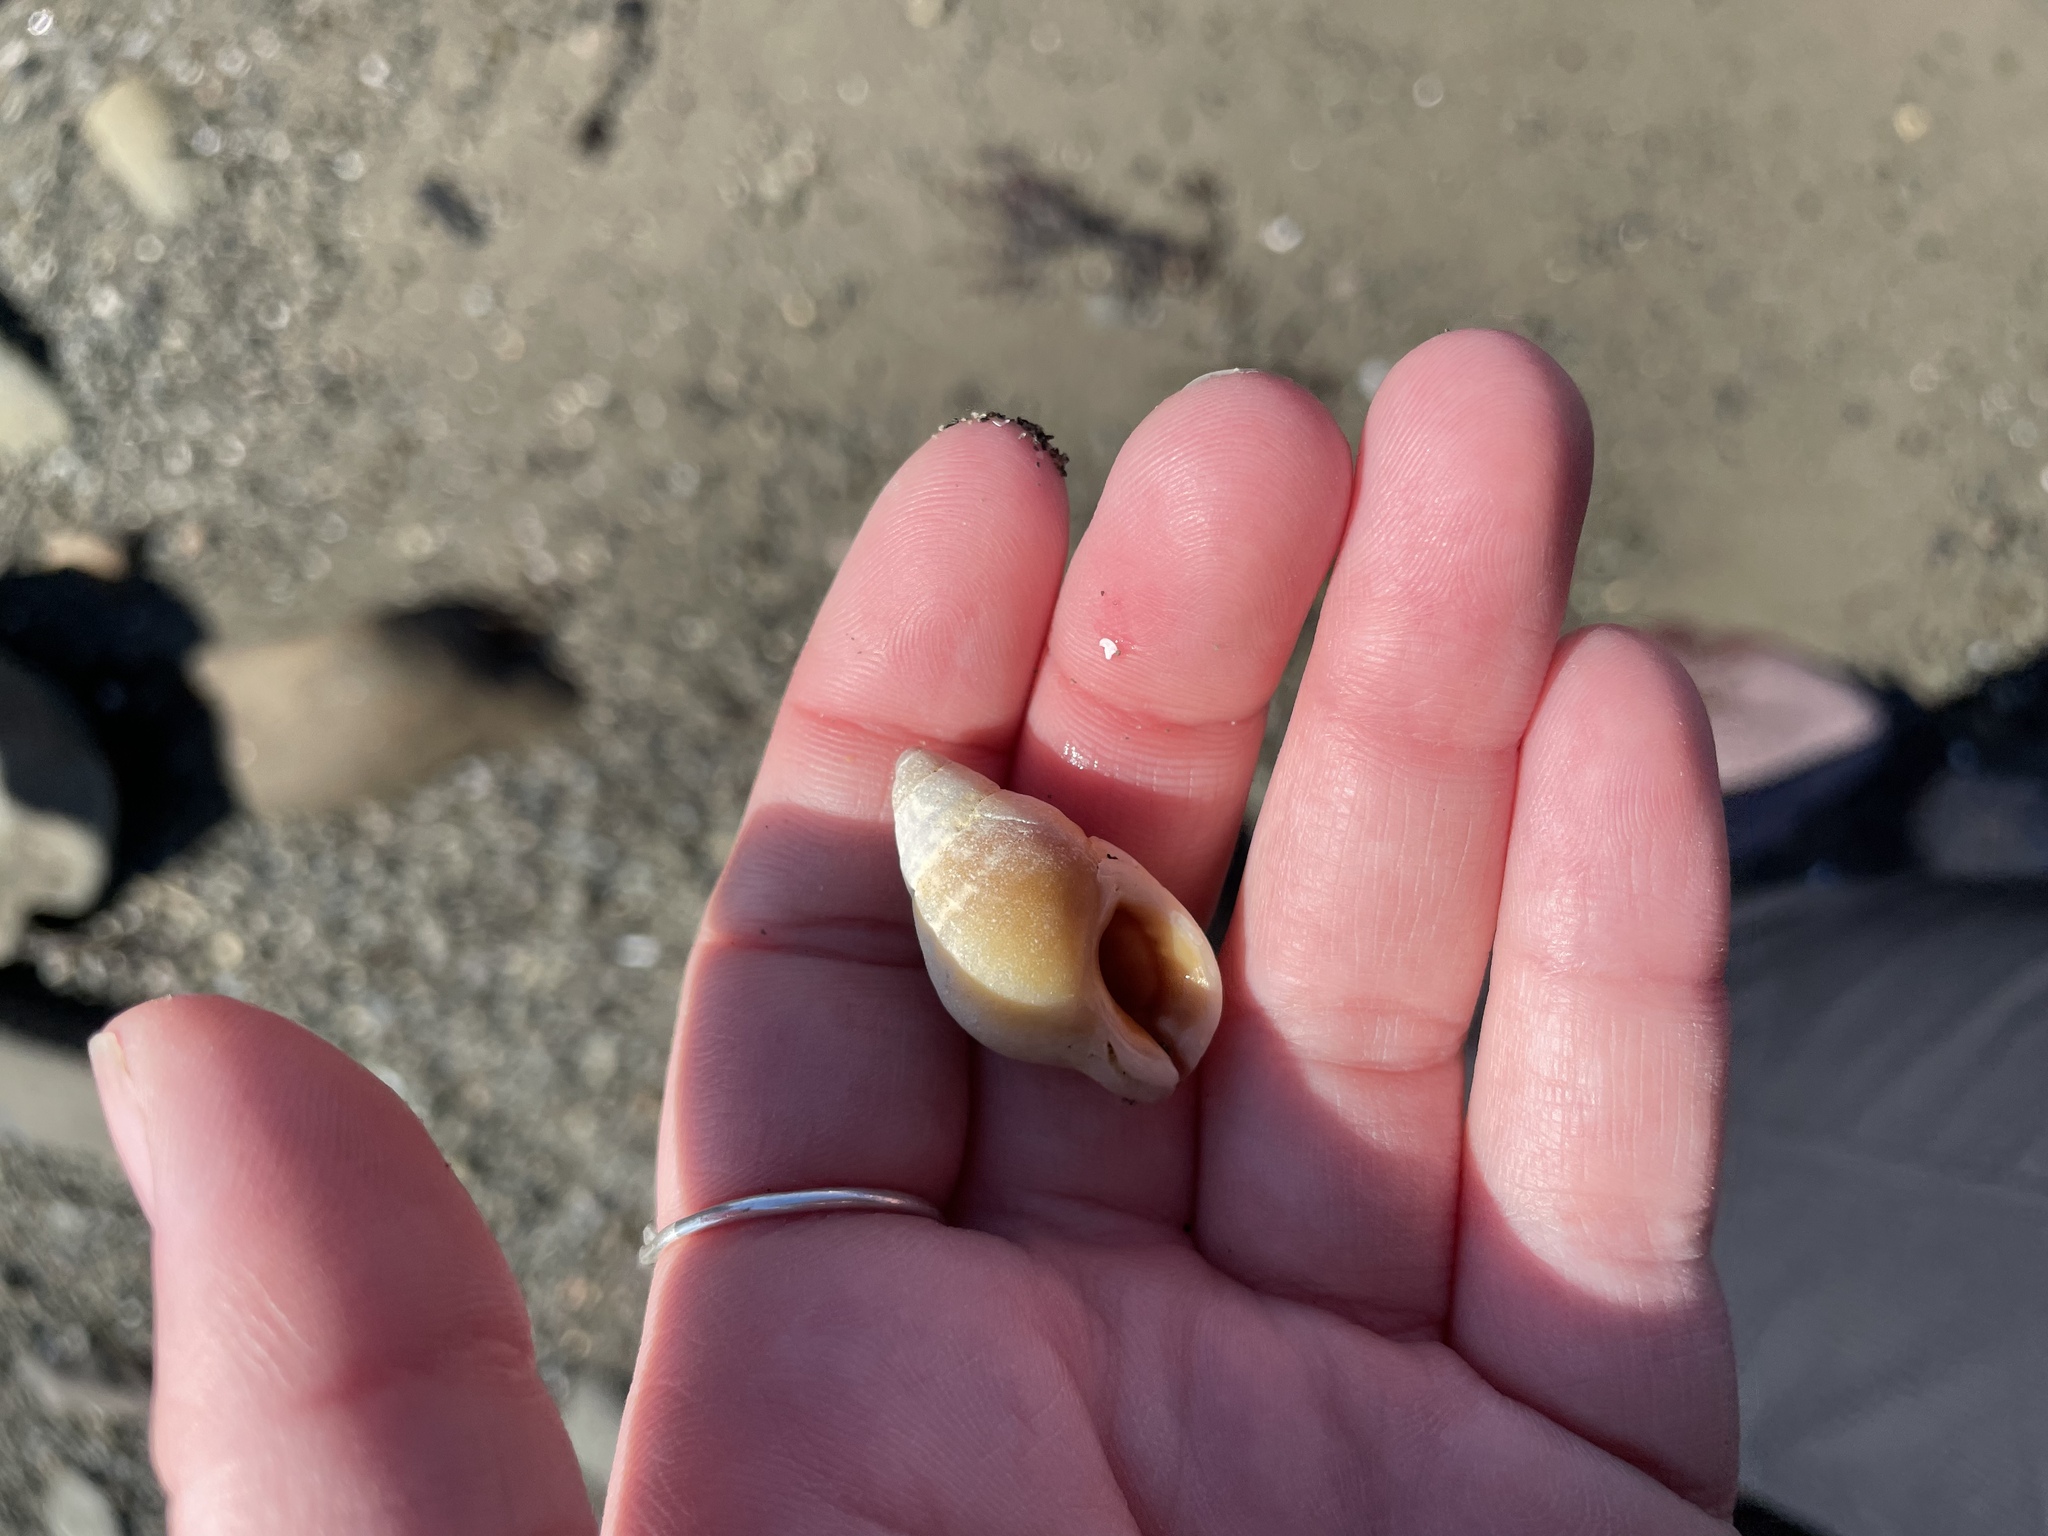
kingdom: Animalia
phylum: Mollusca
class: Gastropoda
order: Neogastropoda
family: Muricidae
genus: Nucella
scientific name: Nucella lapillus
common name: Dog whelk
